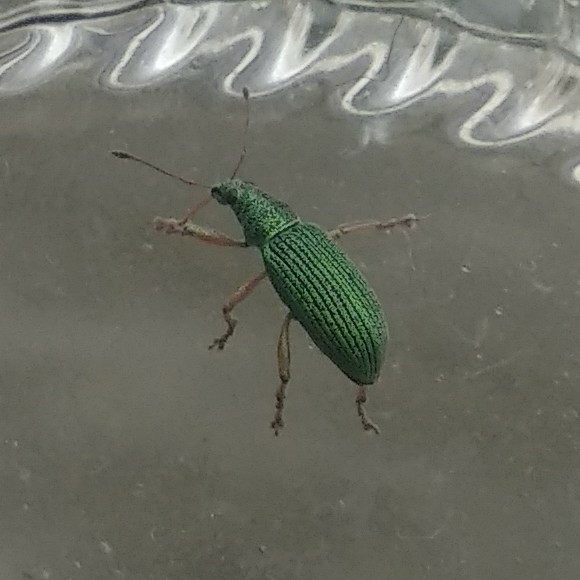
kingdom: Animalia
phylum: Arthropoda
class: Insecta
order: Coleoptera
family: Curculionidae
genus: Polydrusus
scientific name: Polydrusus formosus
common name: Weevil
